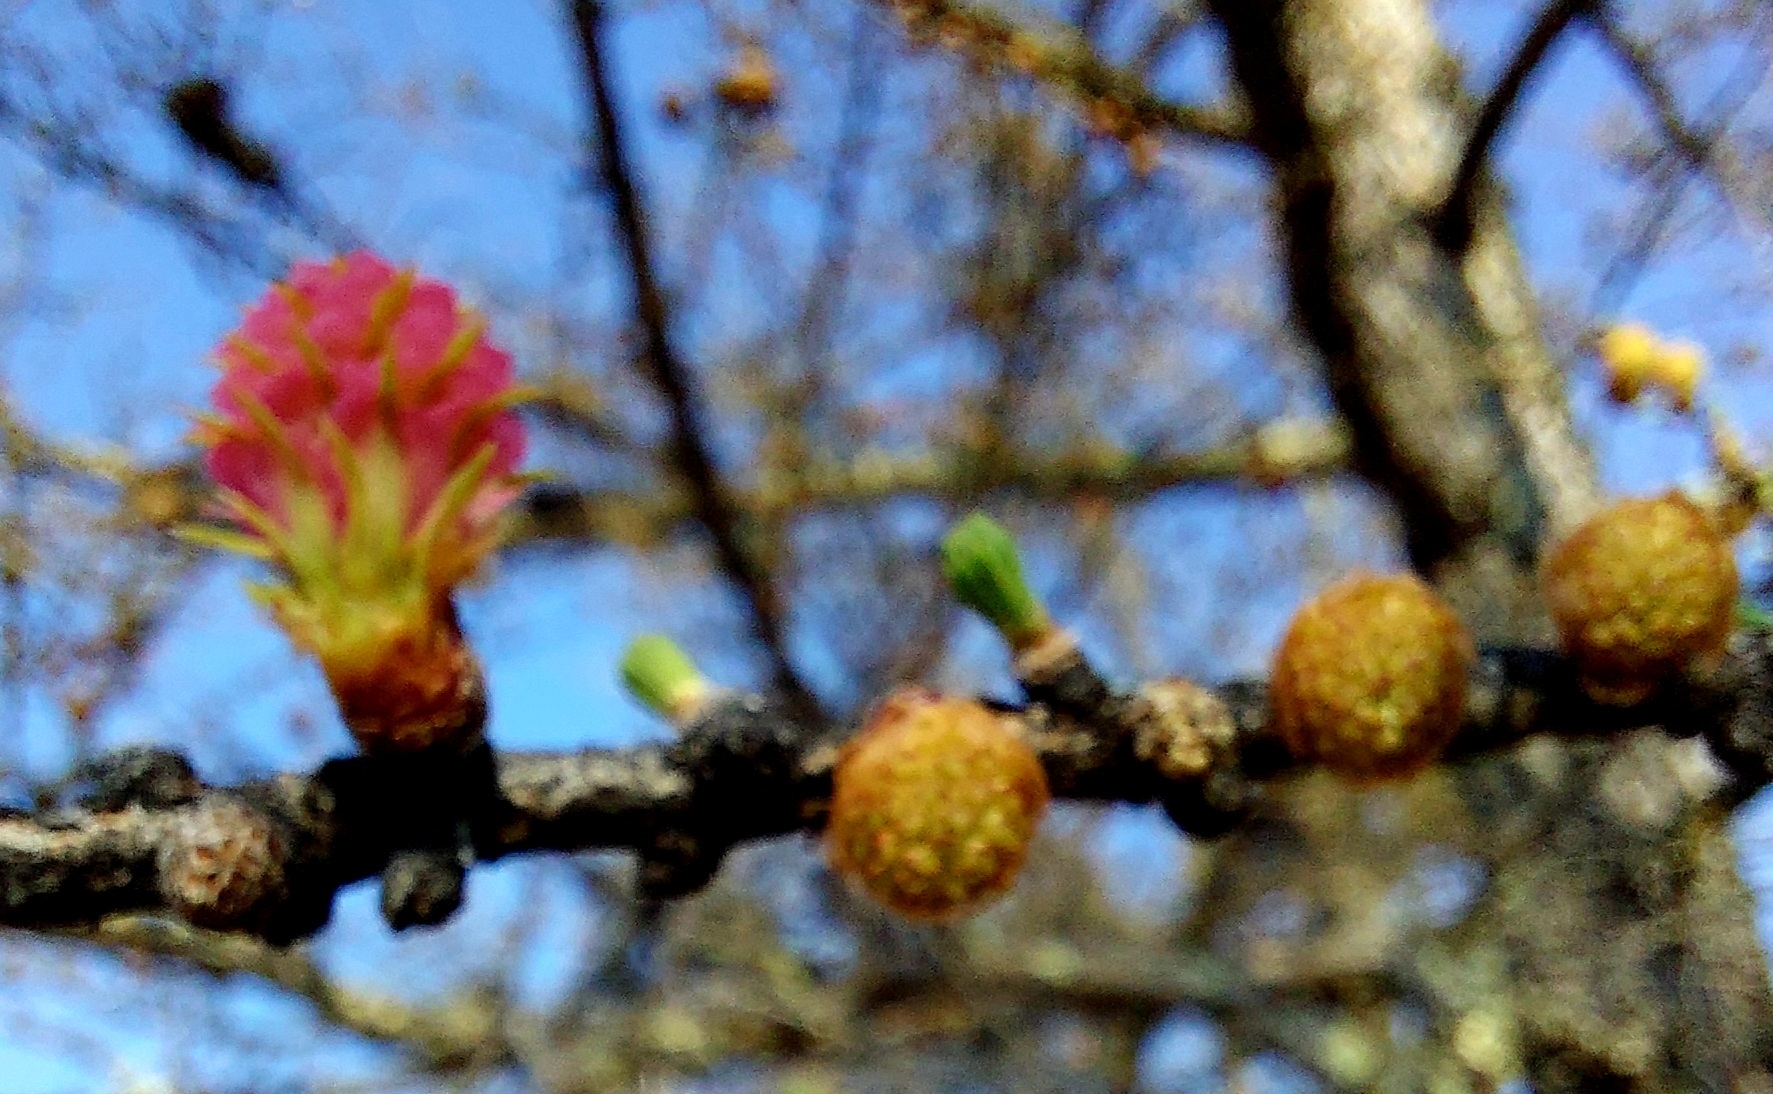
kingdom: Plantae
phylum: Tracheophyta
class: Pinopsida
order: Pinales
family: Pinaceae
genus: Larix
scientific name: Larix sibirica
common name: Siberian larch
